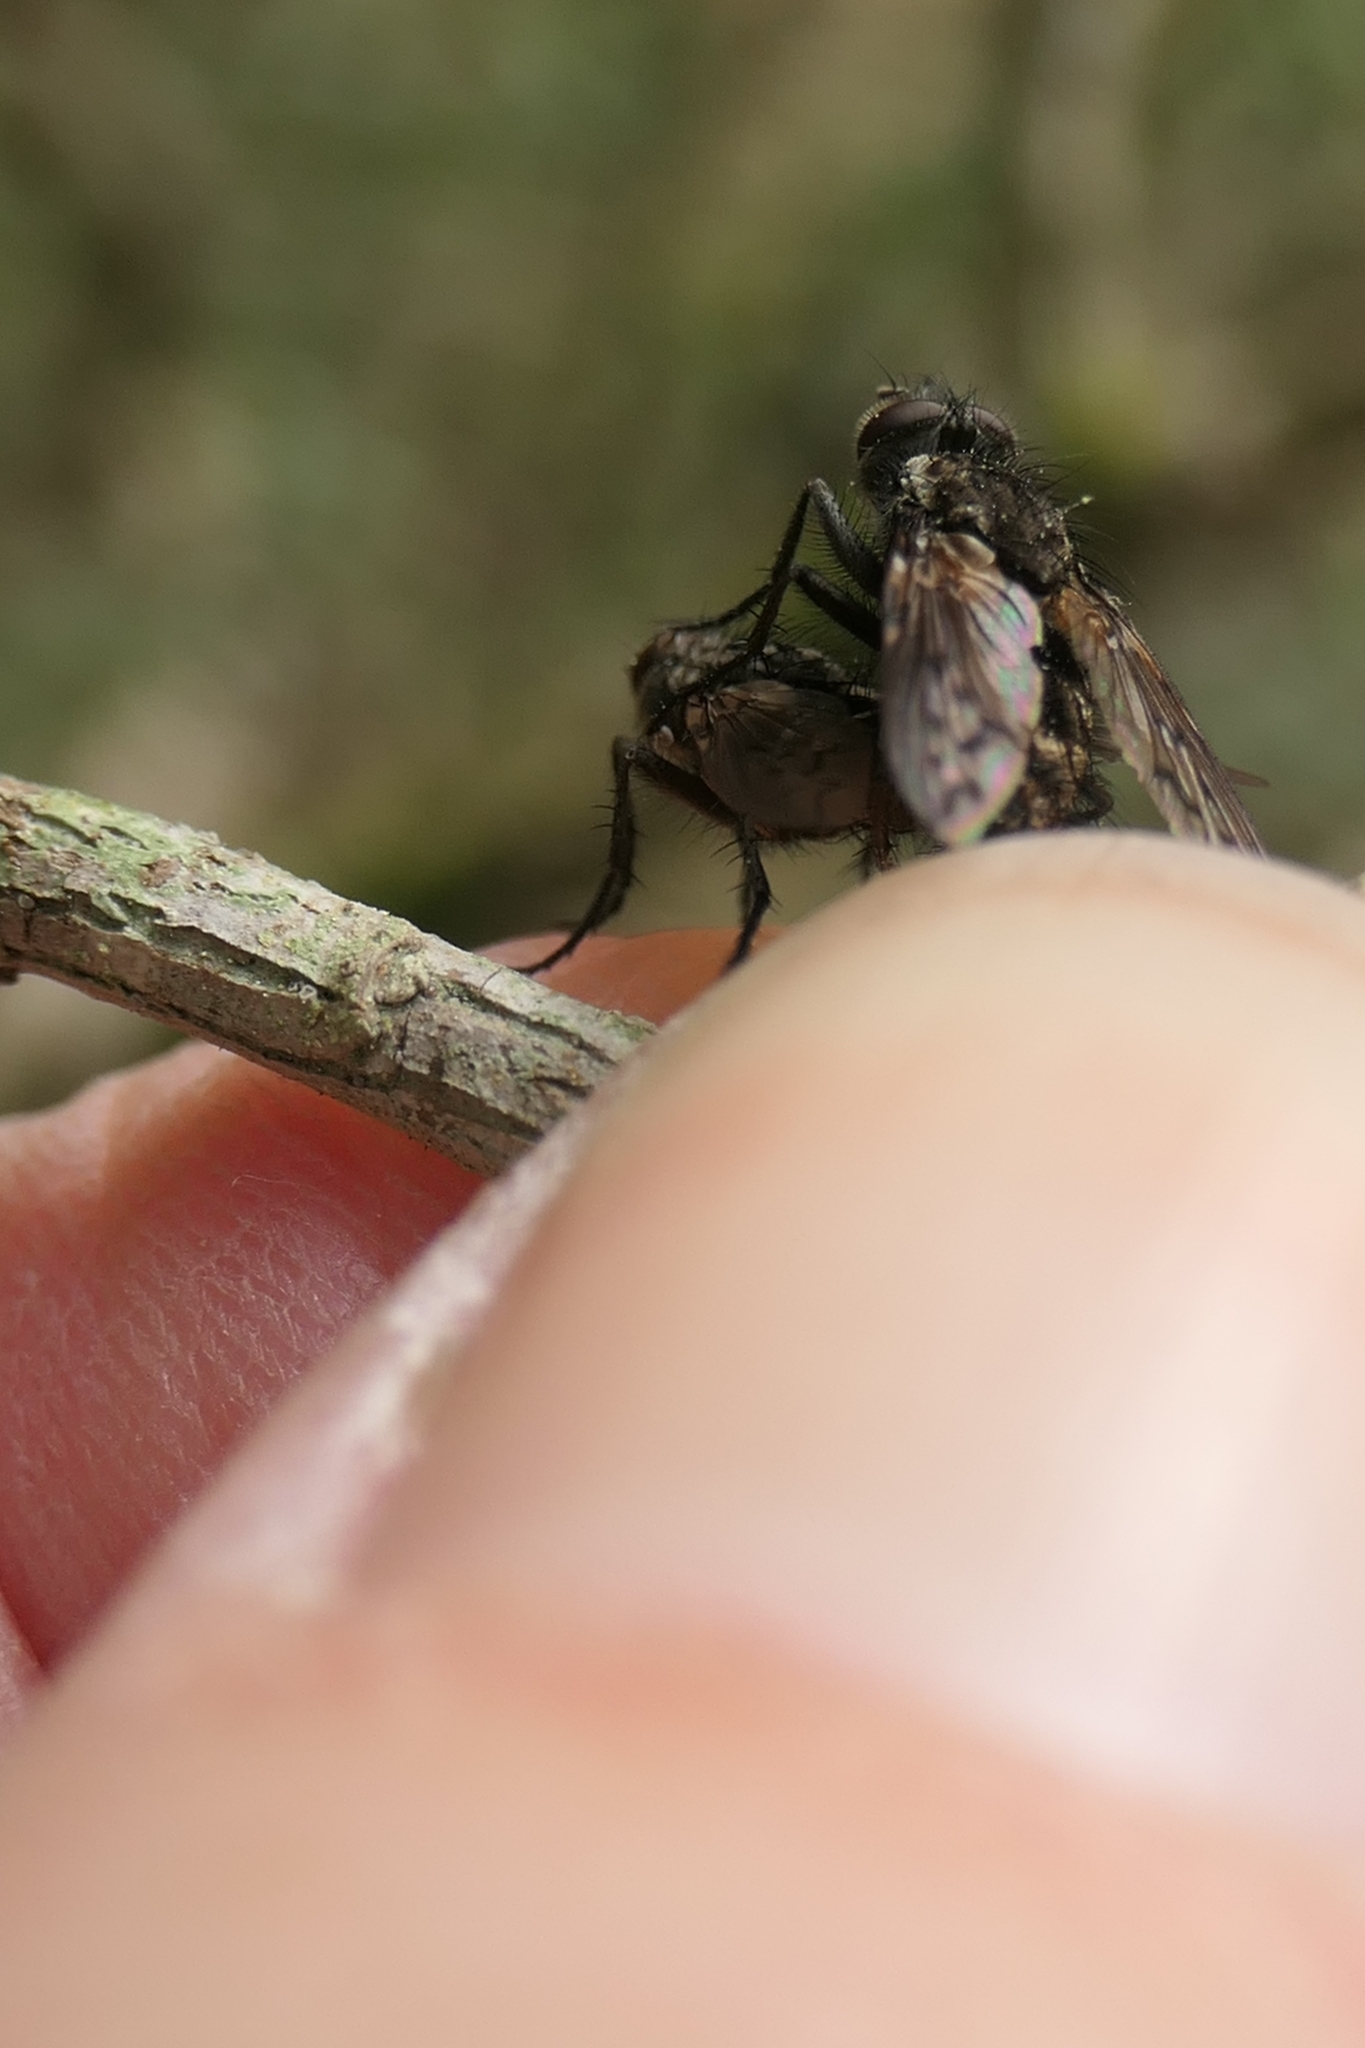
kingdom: Animalia
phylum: Arthropoda
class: Insecta
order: Diptera
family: Tachinidae
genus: Mallochomacquartia
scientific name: Mallochomacquartia vexata
